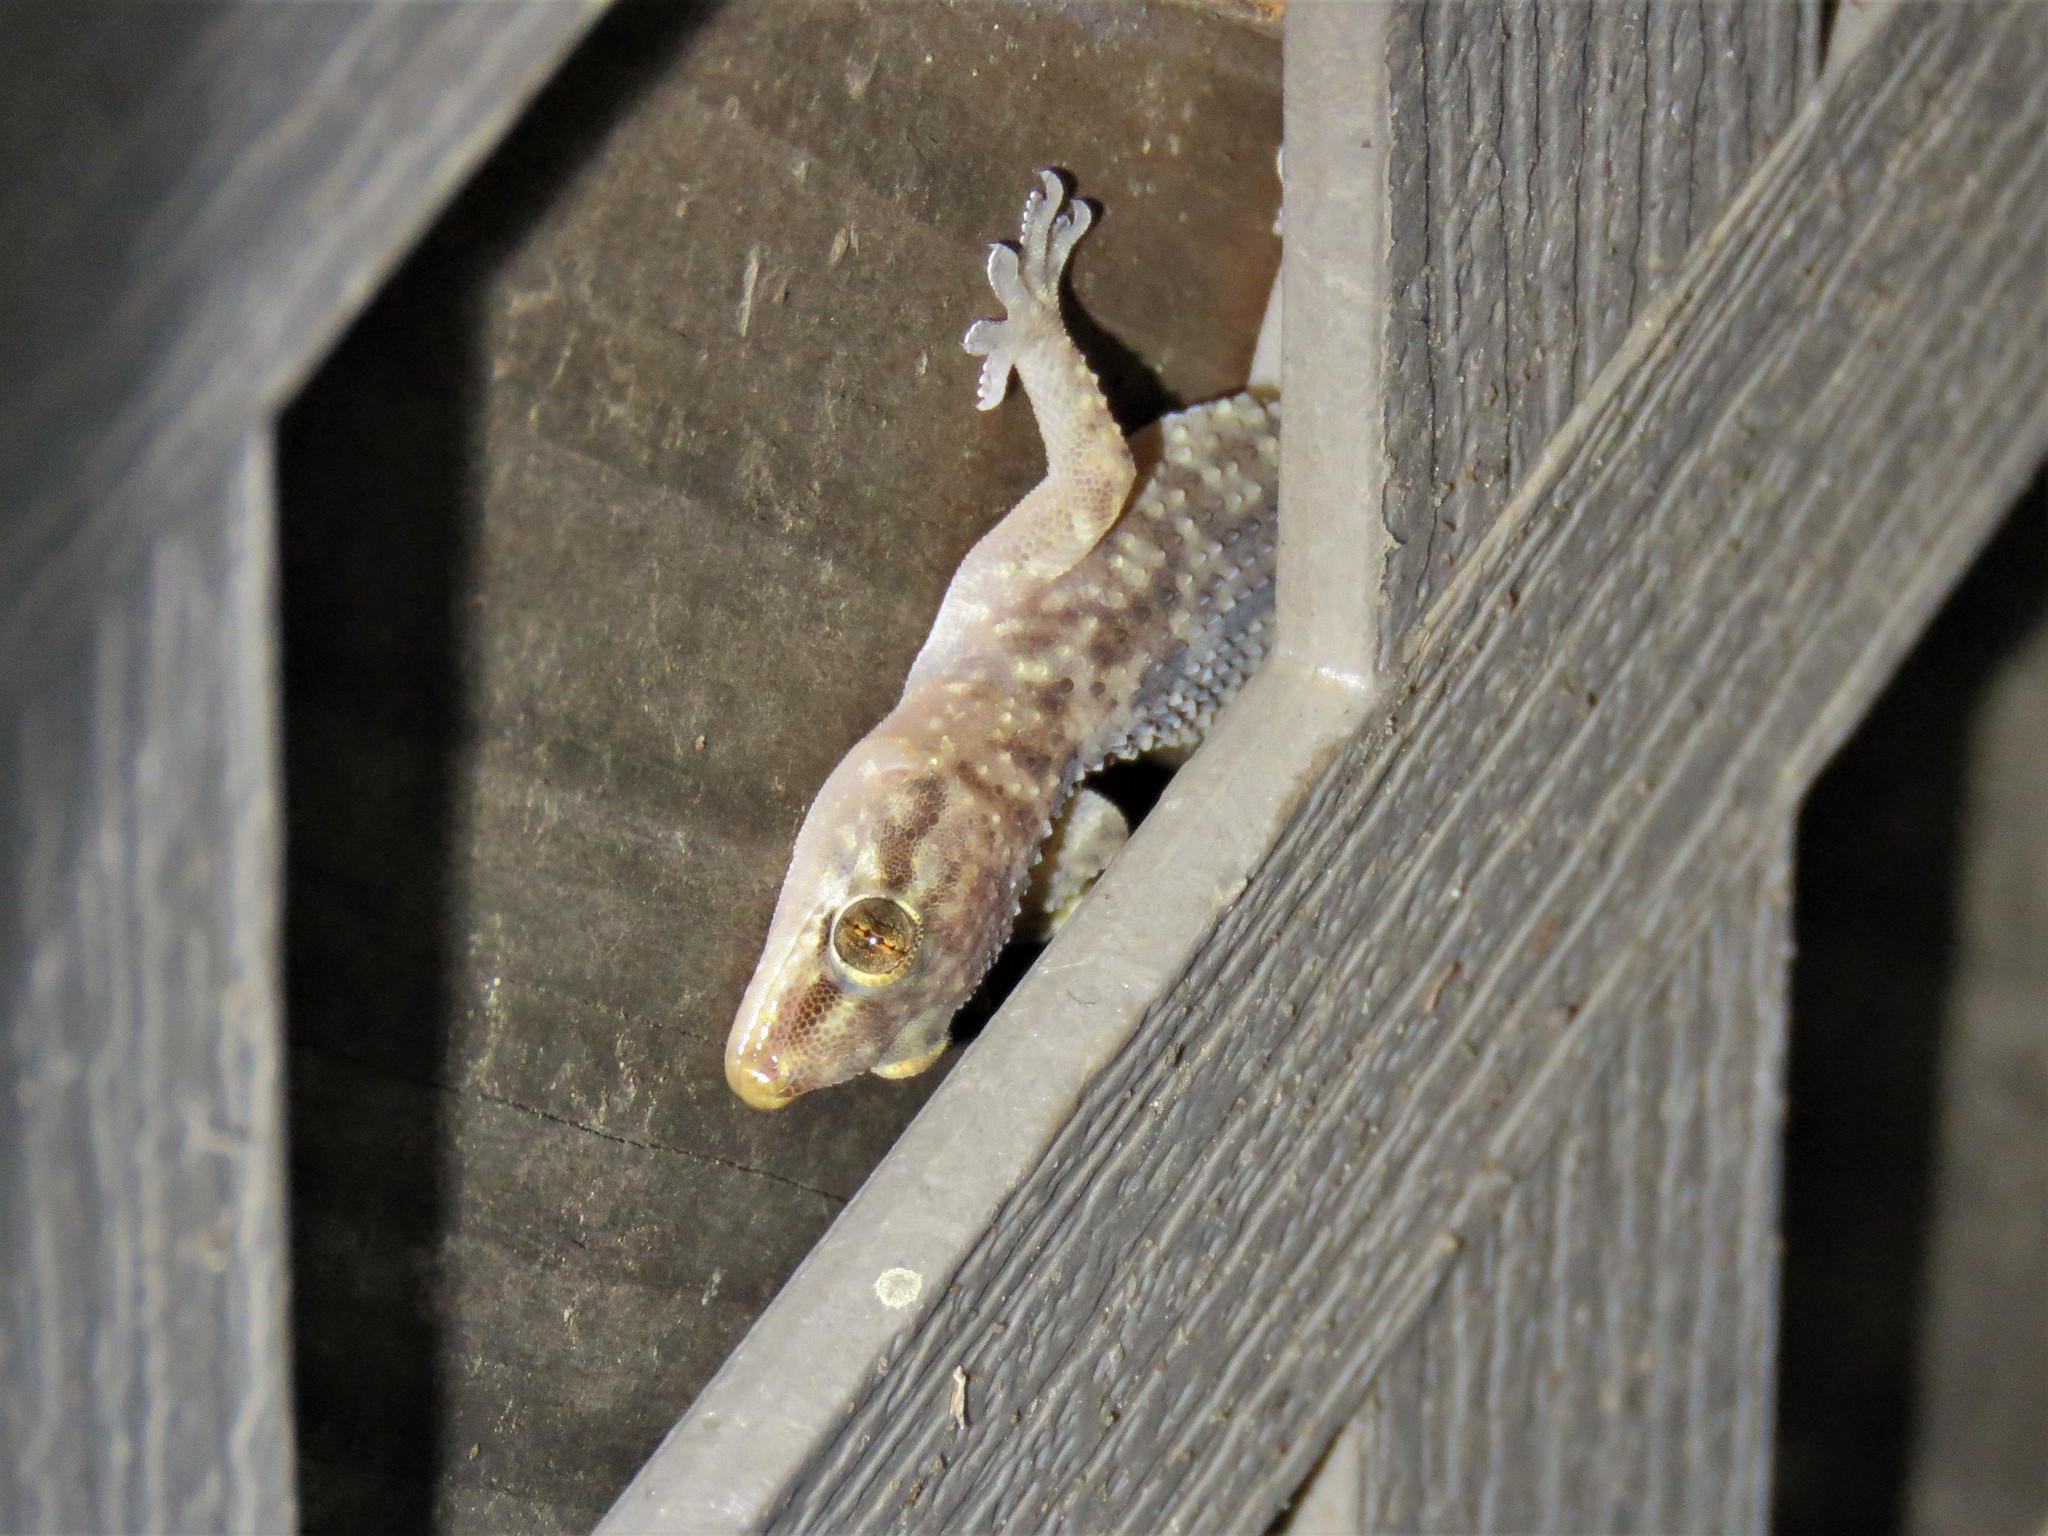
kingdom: Animalia
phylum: Chordata
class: Squamata
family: Gekkonidae
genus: Hemidactylus
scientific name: Hemidactylus turcicus
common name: Turkish gecko
